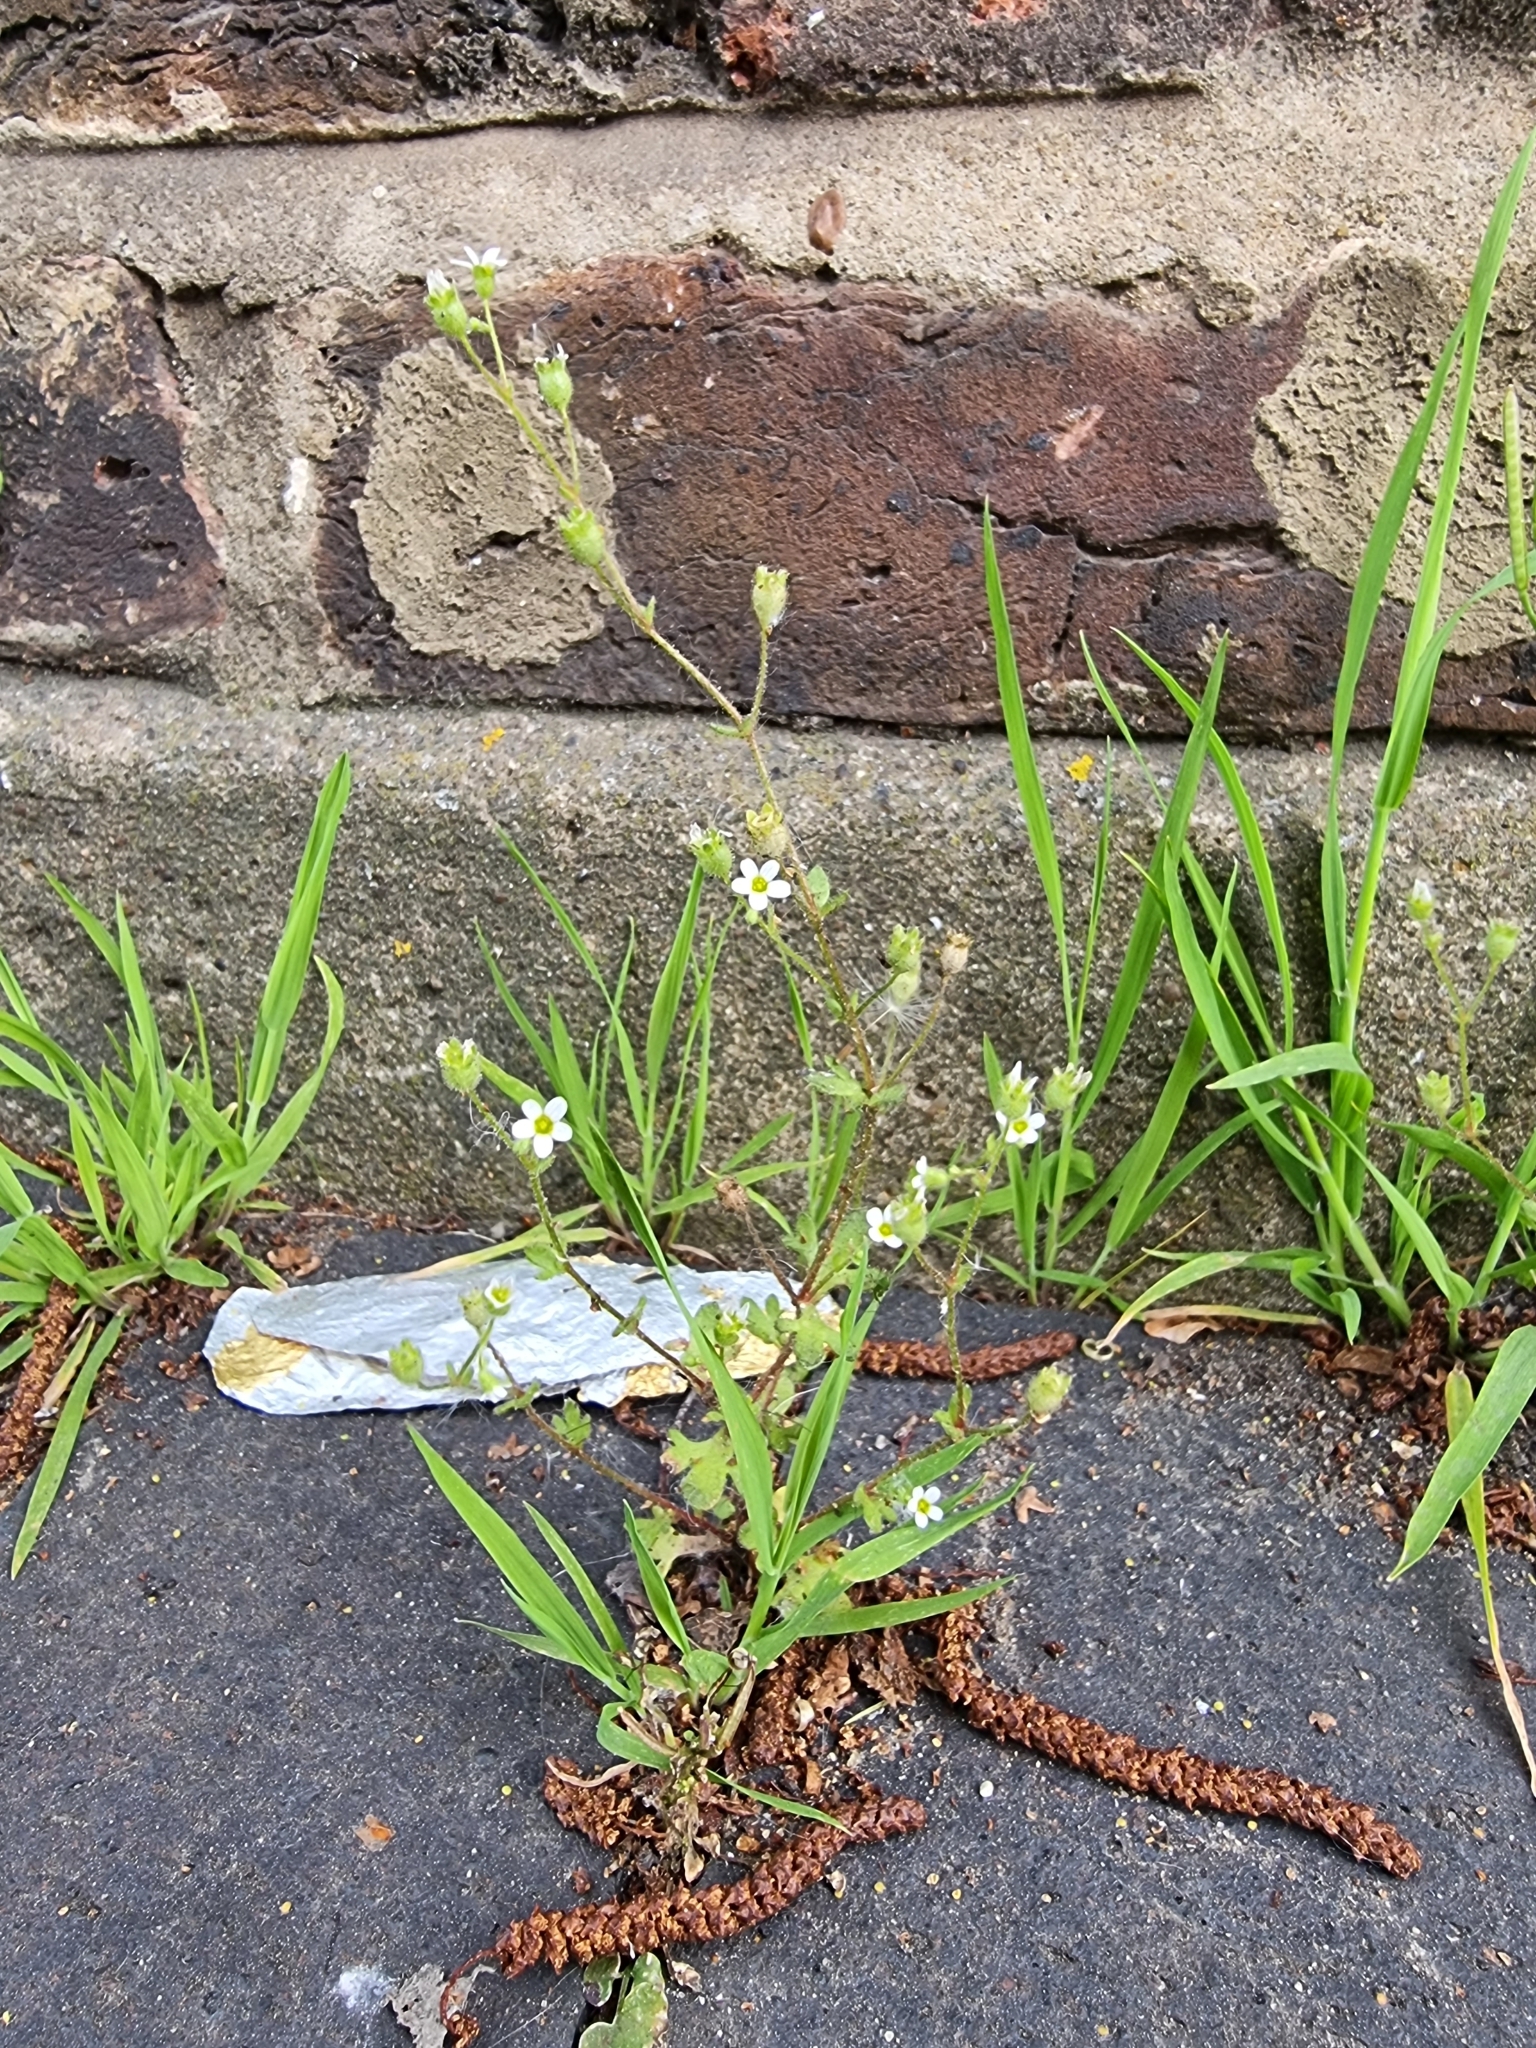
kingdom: Plantae
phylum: Tracheophyta
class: Magnoliopsida
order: Saxifragales
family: Saxifragaceae
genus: Saxifraga
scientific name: Saxifraga tridactylites
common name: Rue-leaved saxifrage
